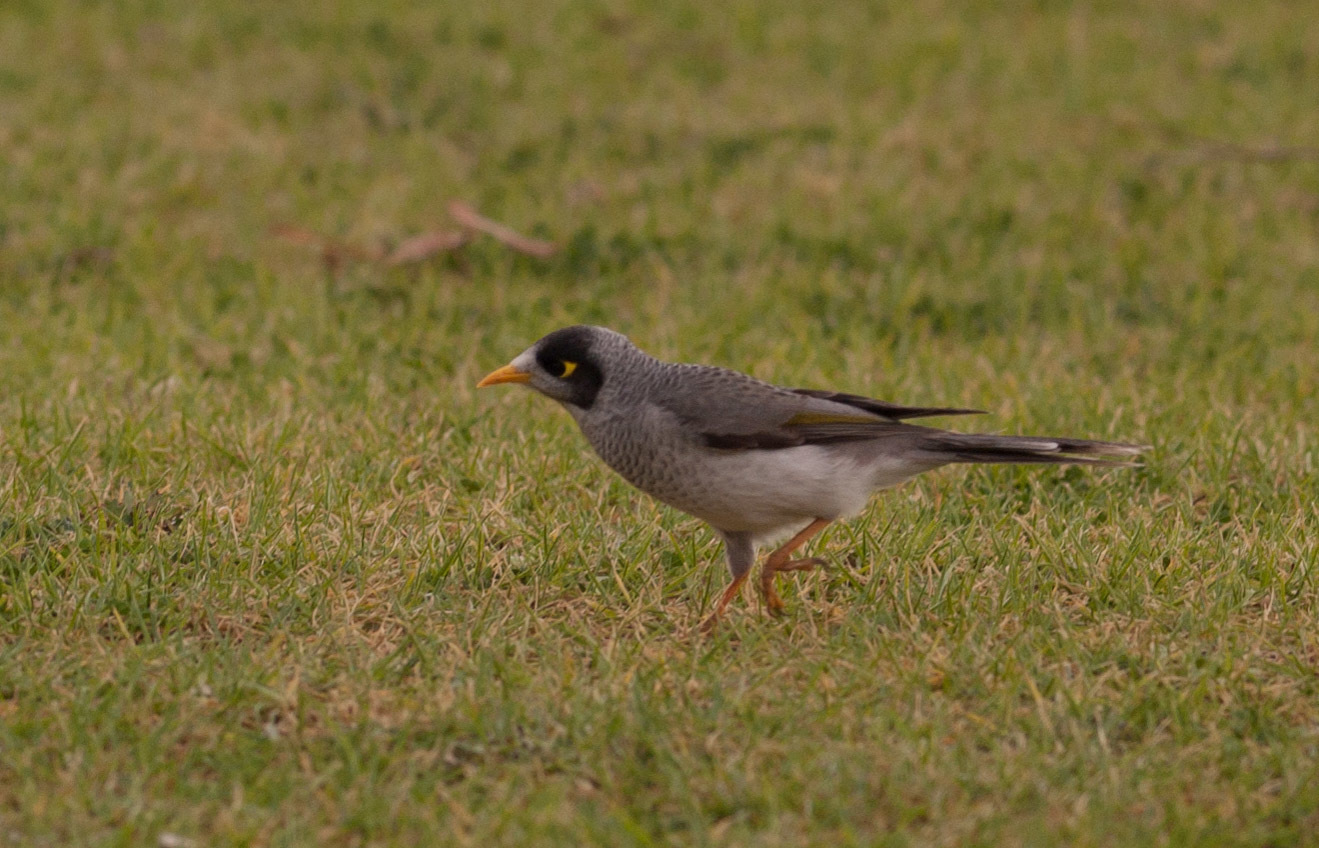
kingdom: Animalia
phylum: Chordata
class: Aves
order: Passeriformes
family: Meliphagidae
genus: Manorina
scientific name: Manorina melanocephala
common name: Noisy miner
